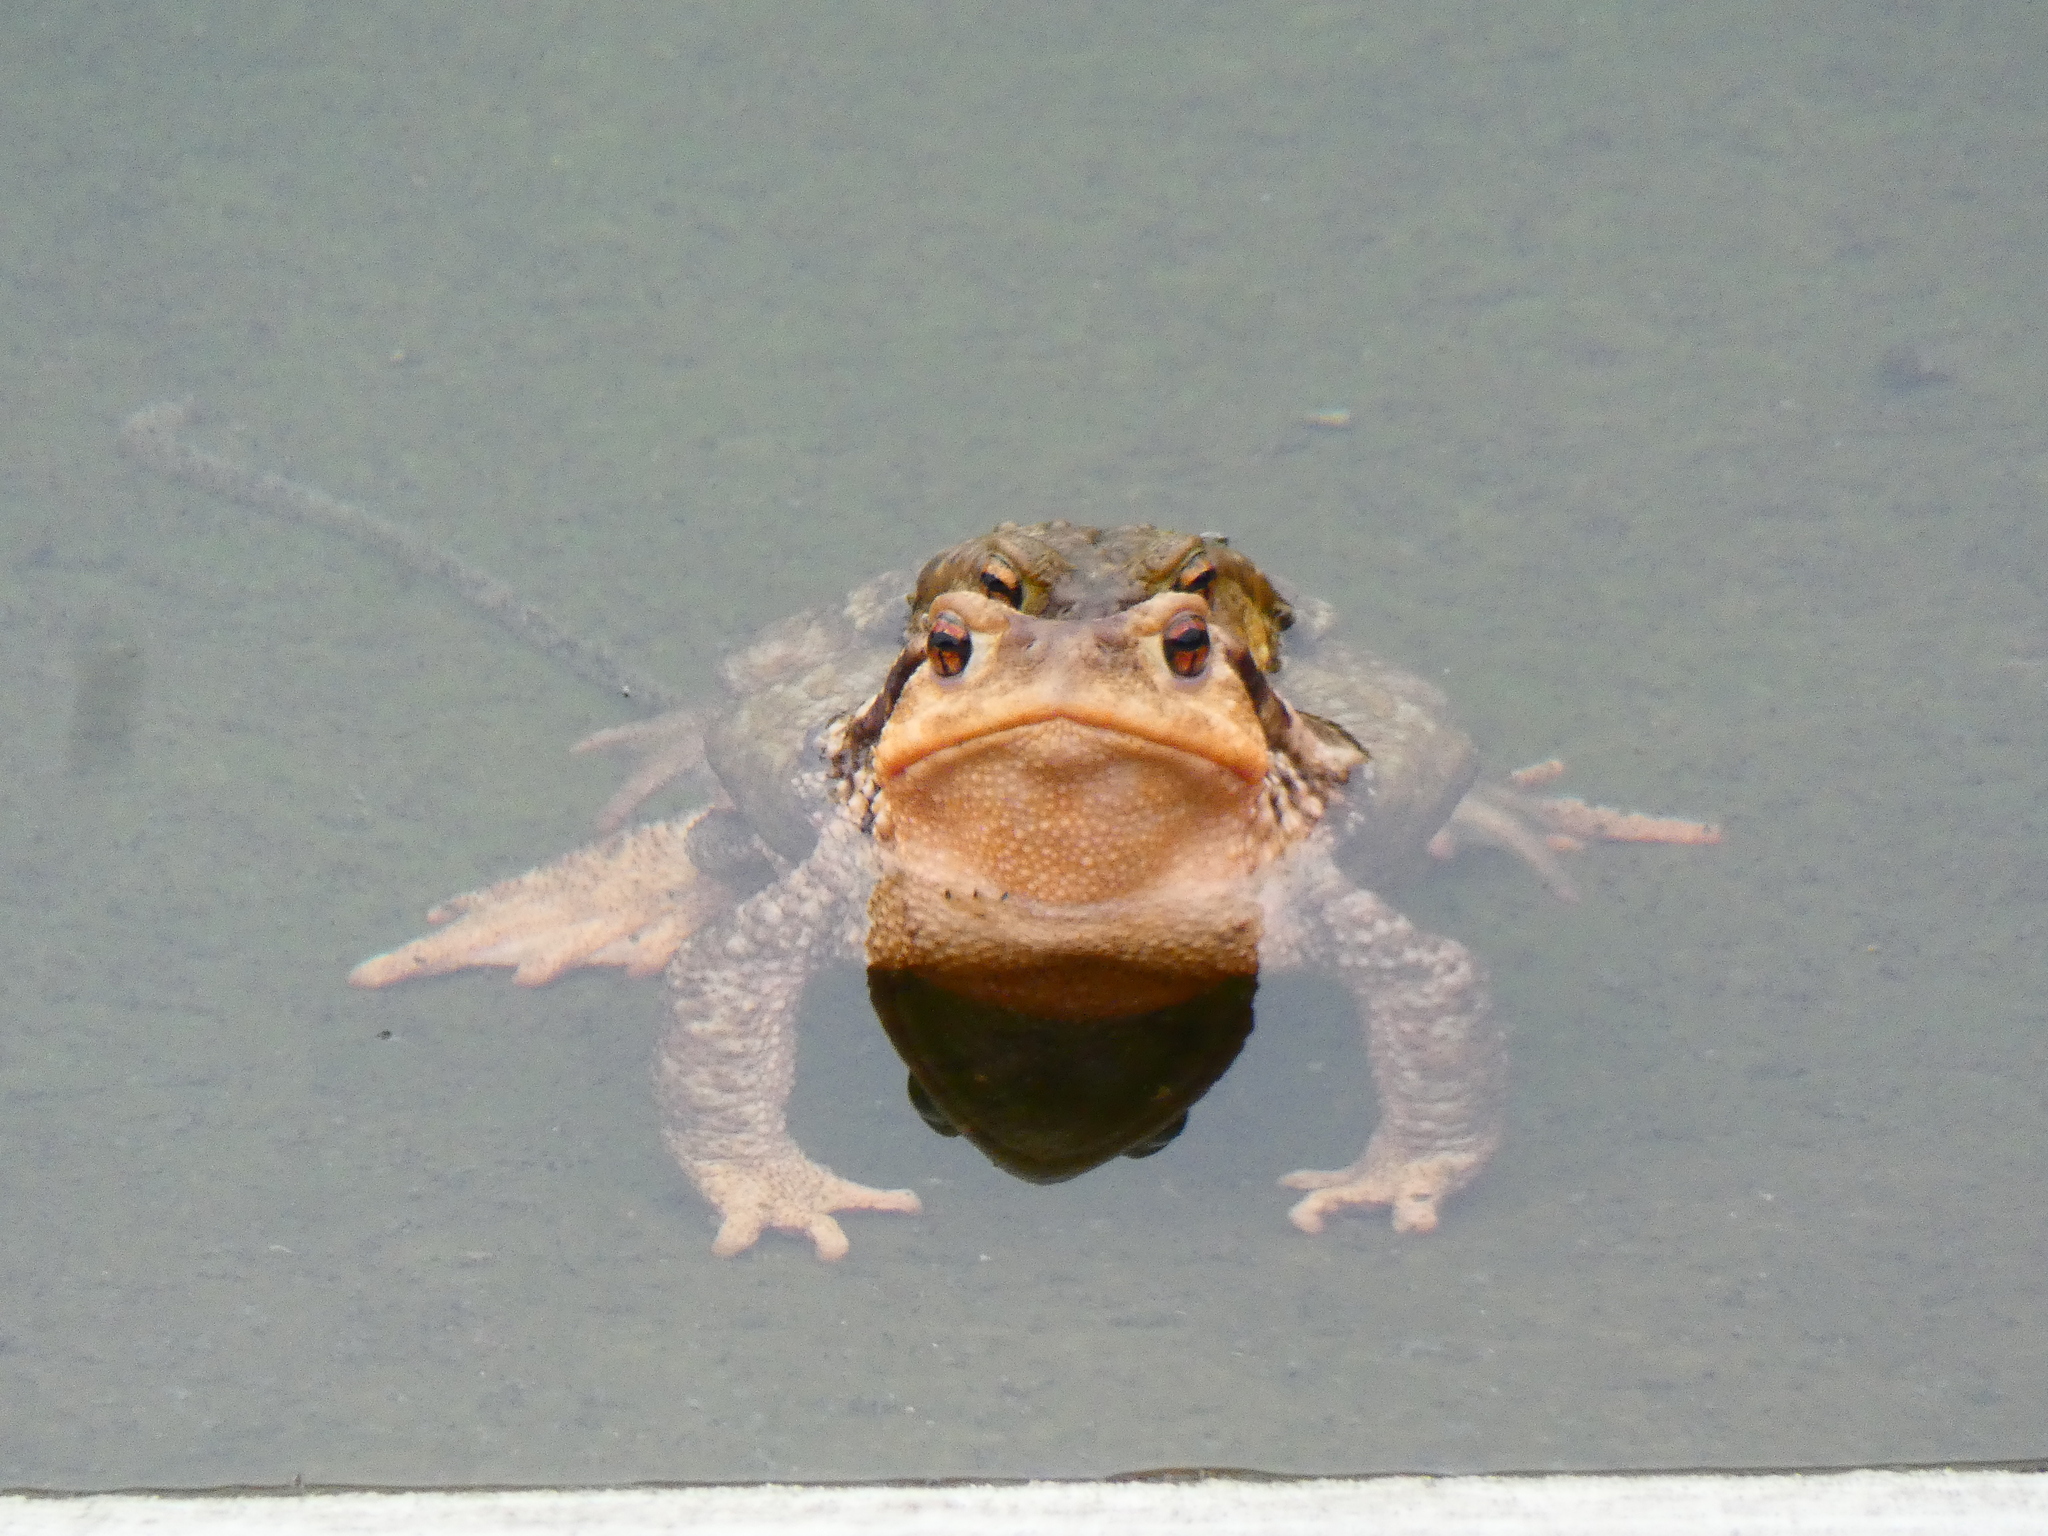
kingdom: Animalia
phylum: Chordata
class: Amphibia
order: Anura
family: Bufonidae
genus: Bufo
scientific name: Bufo spinosus
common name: Western common toad
